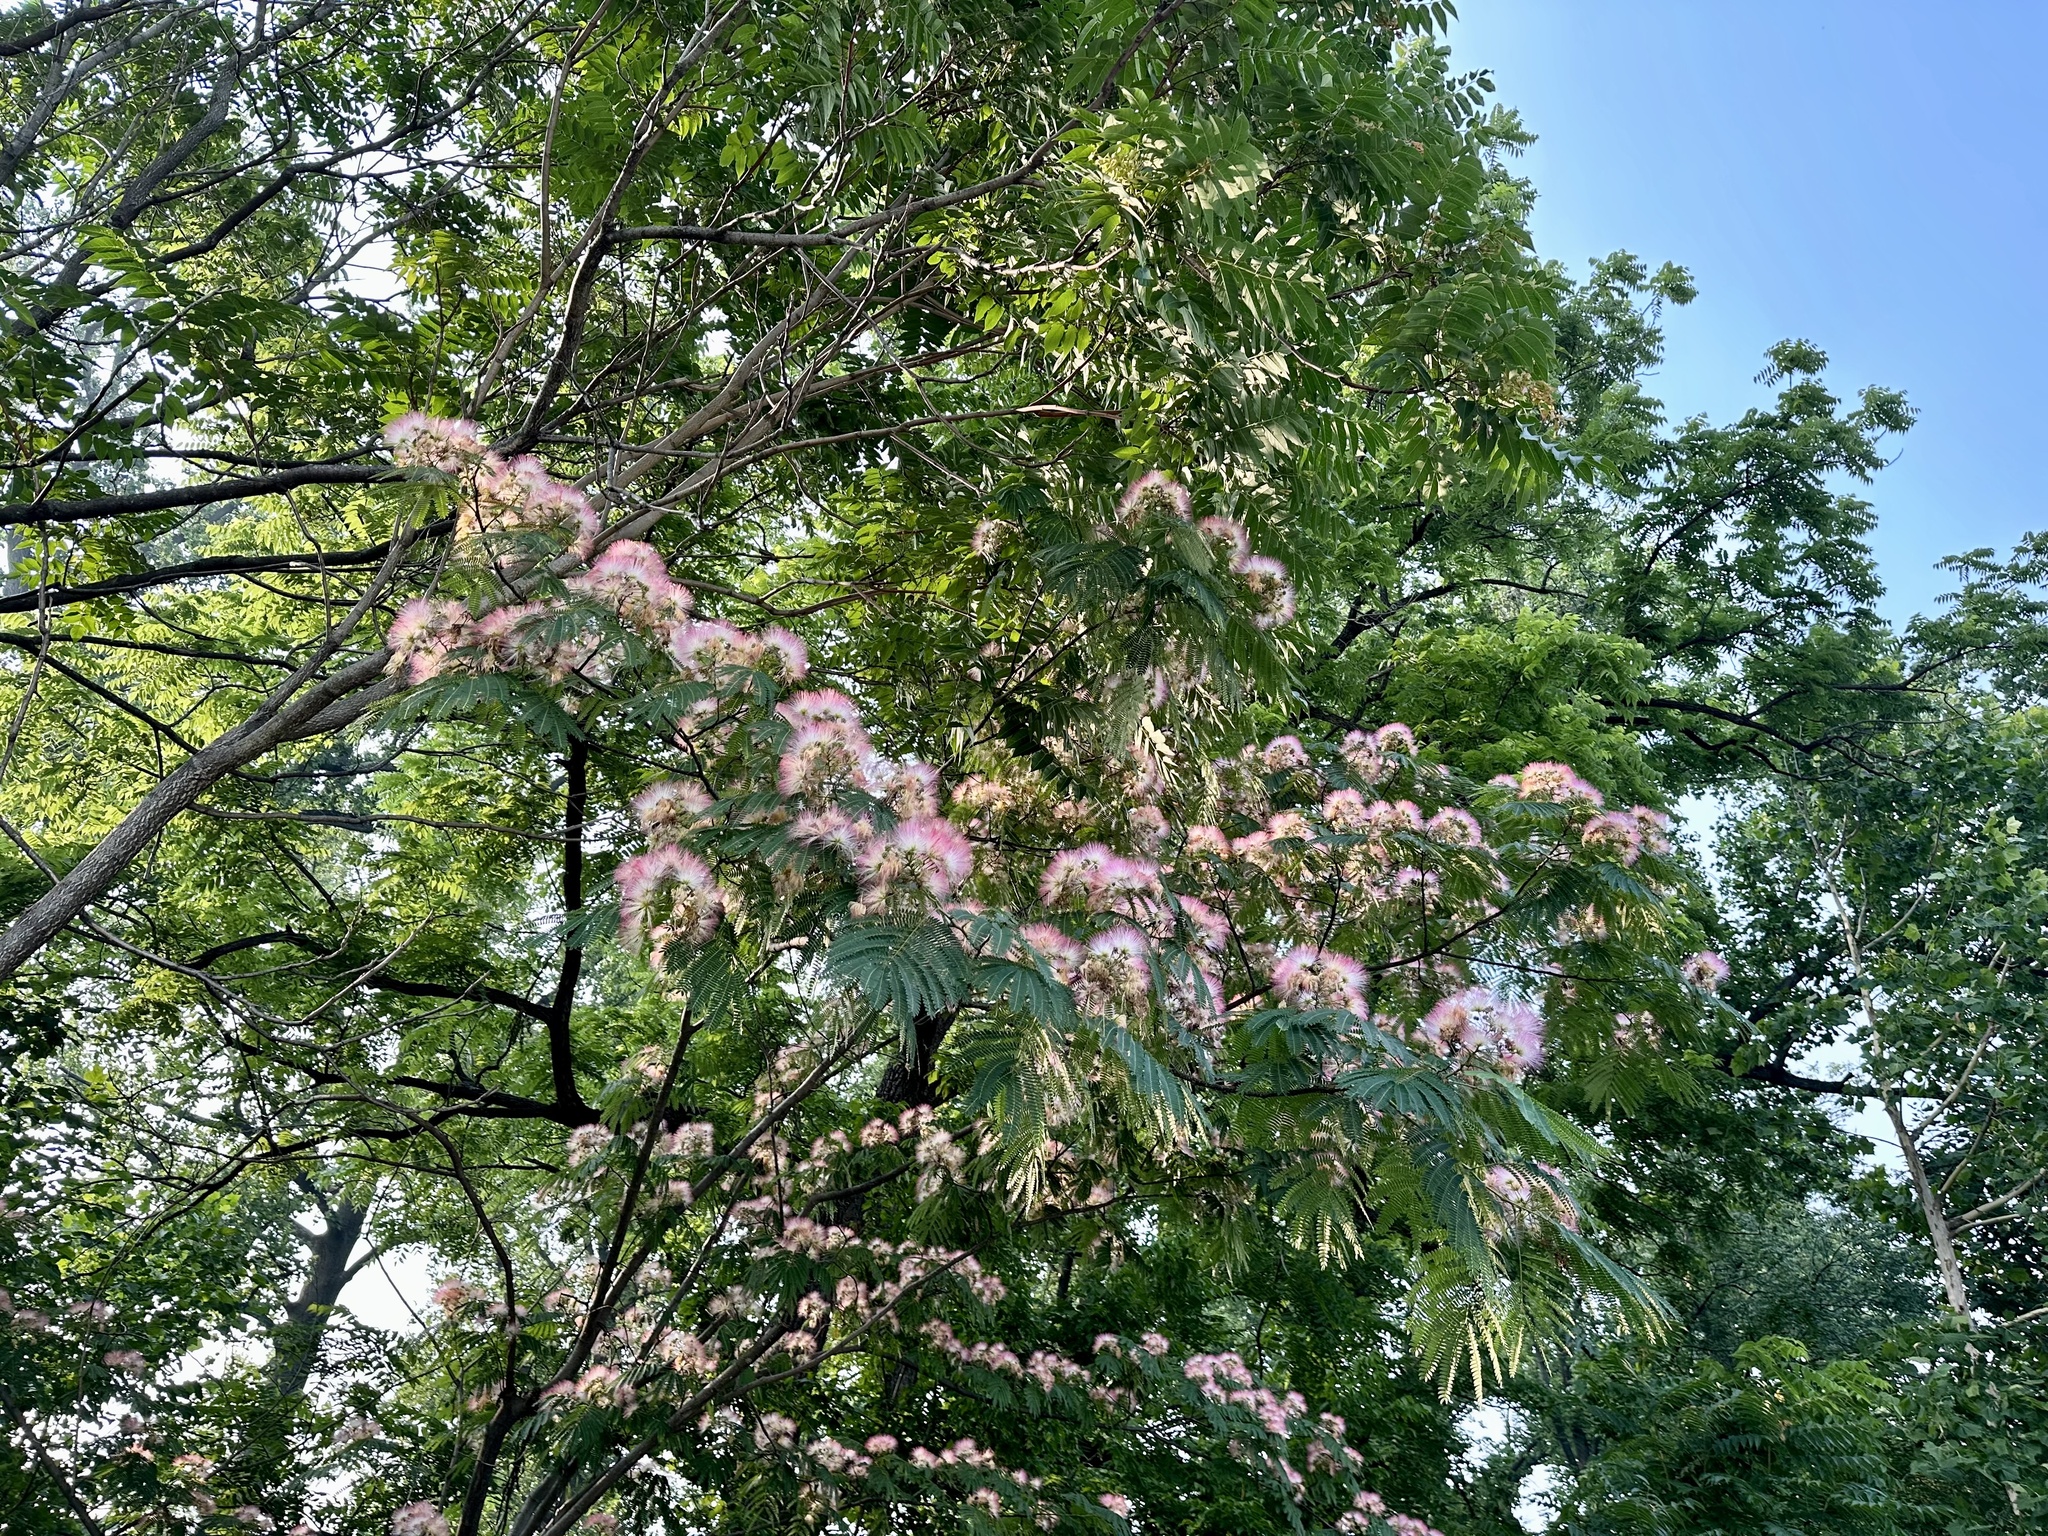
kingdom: Plantae
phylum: Tracheophyta
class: Magnoliopsida
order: Fabales
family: Fabaceae
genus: Albizia
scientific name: Albizia julibrissin
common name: Silktree
